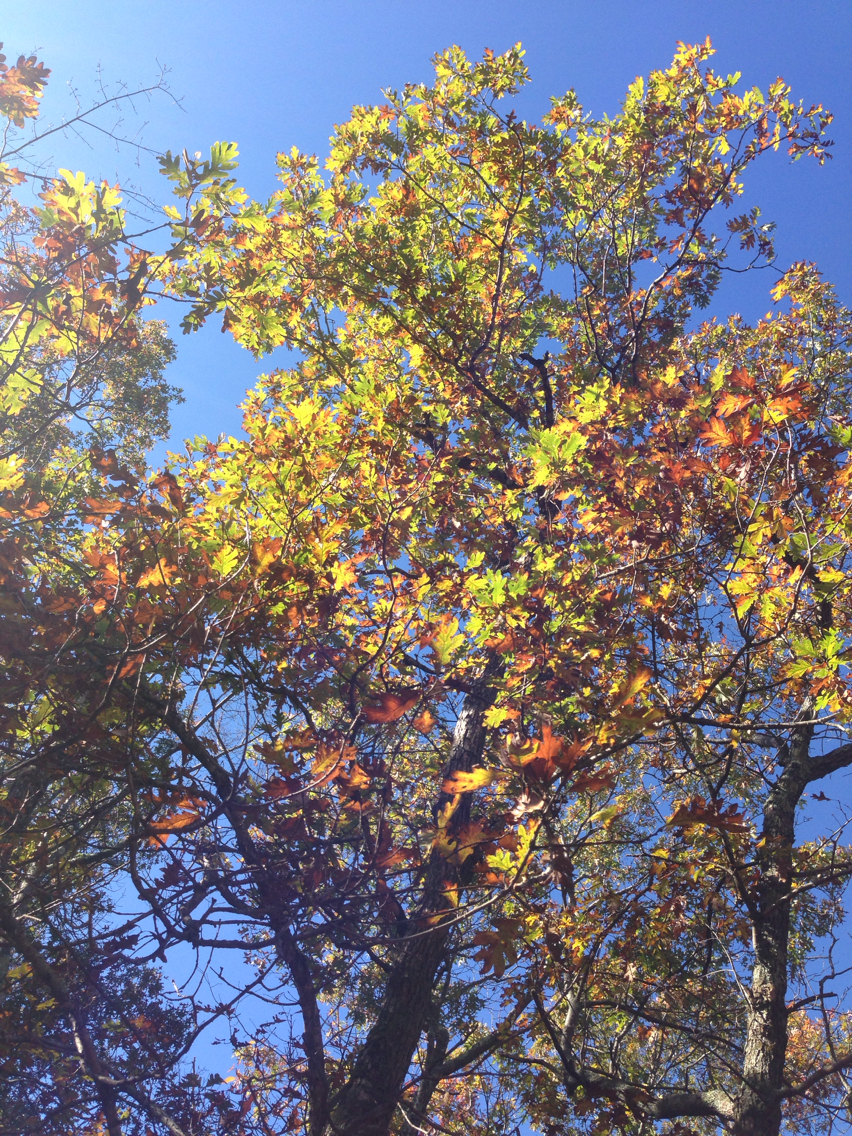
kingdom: Plantae
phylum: Tracheophyta
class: Magnoliopsida
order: Fagales
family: Fagaceae
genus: Quercus
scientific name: Quercus alba
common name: White oak
